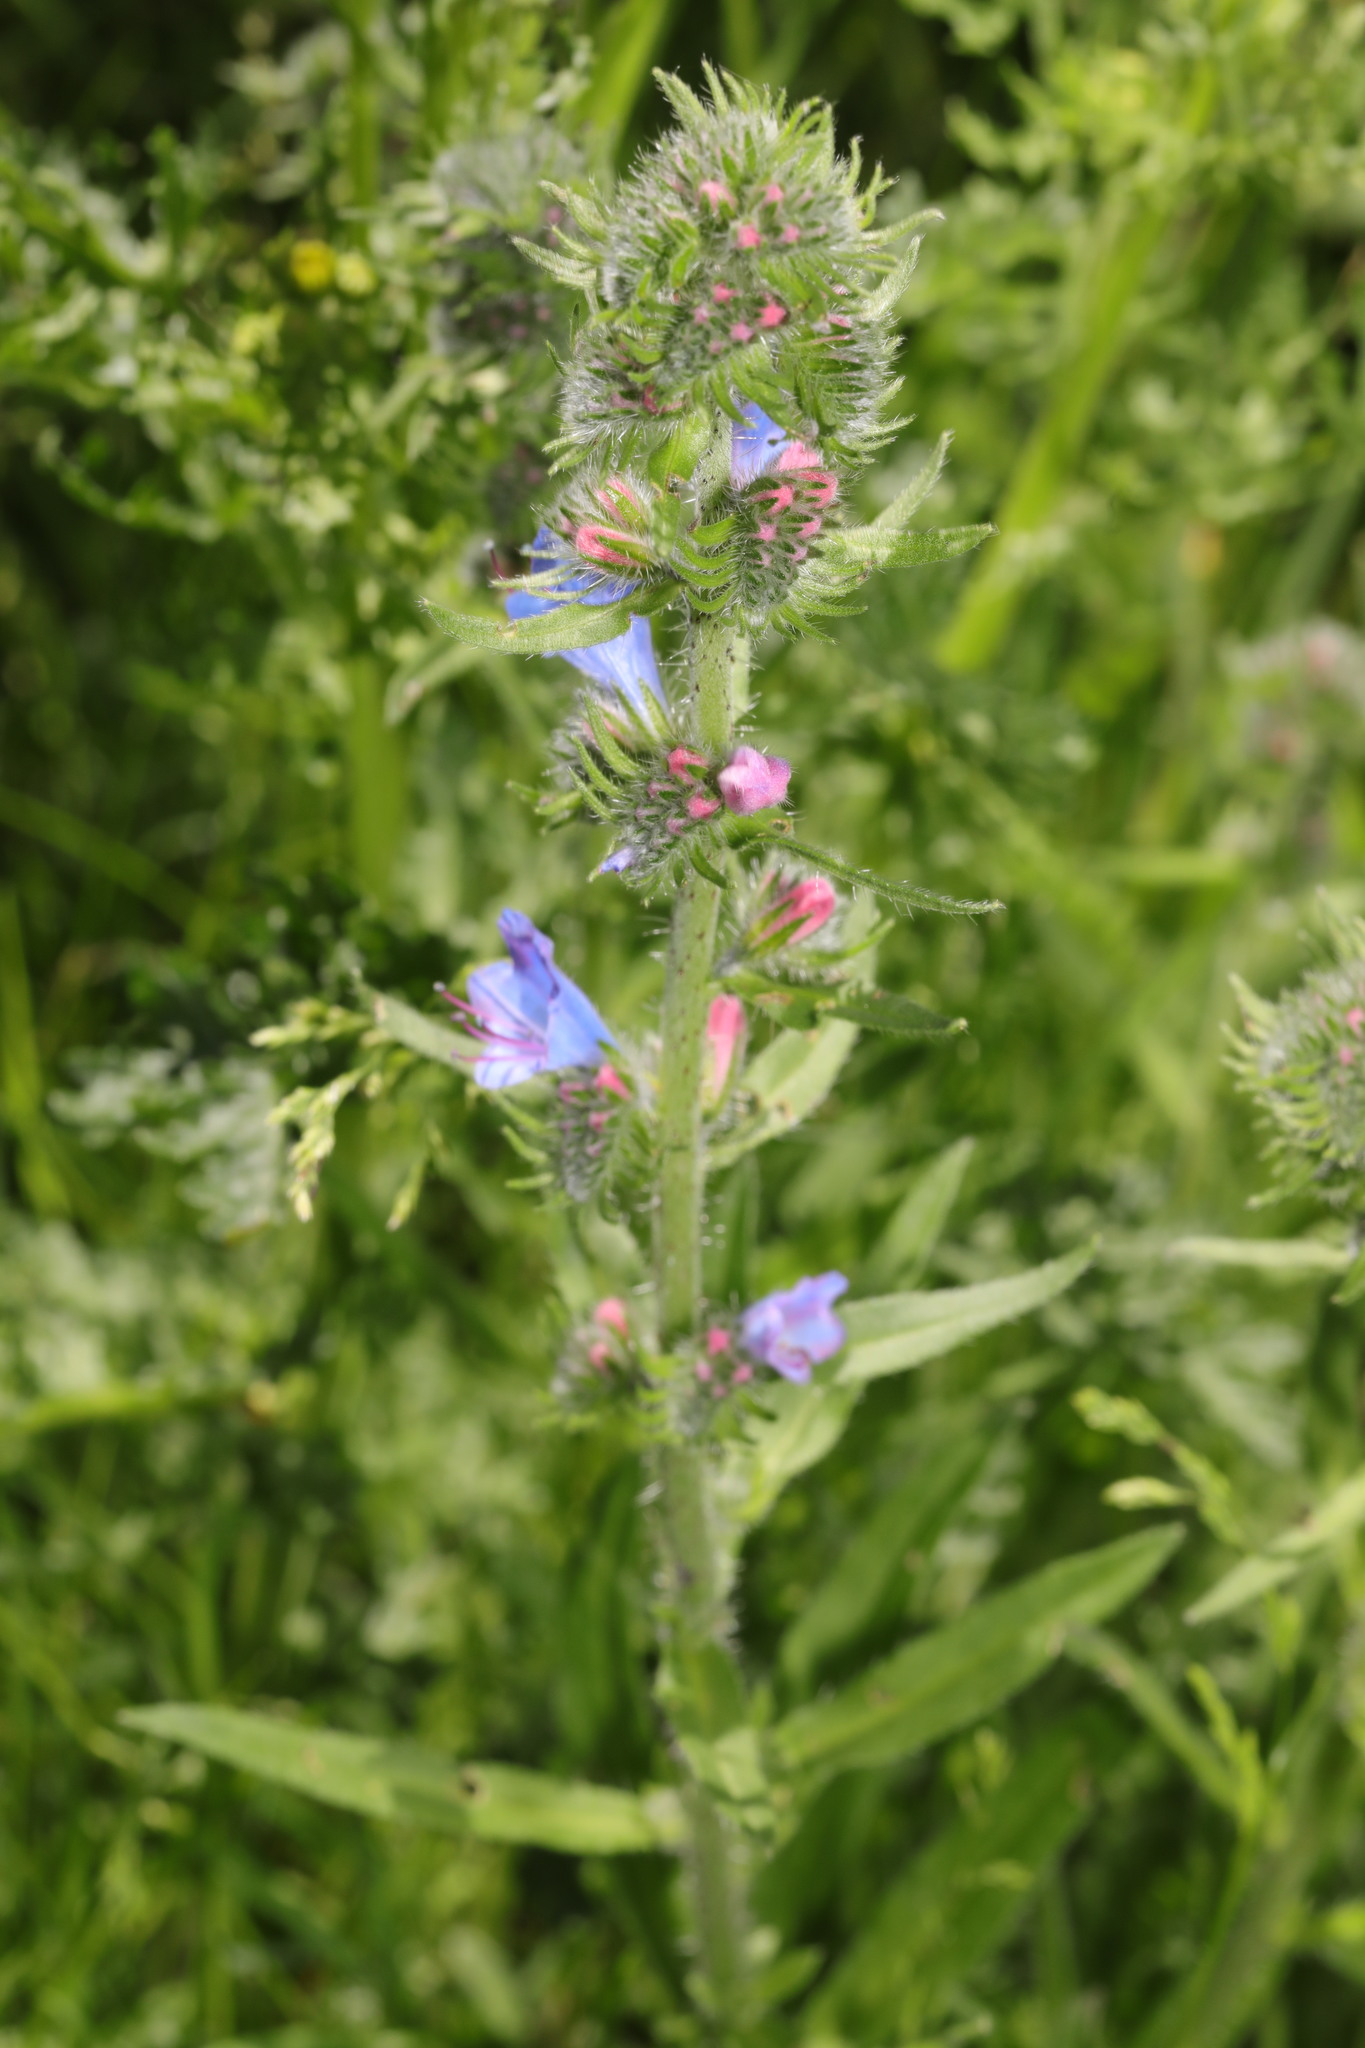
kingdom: Plantae
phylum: Tracheophyta
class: Magnoliopsida
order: Boraginales
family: Boraginaceae
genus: Echium
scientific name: Echium vulgare
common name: Common viper's bugloss
